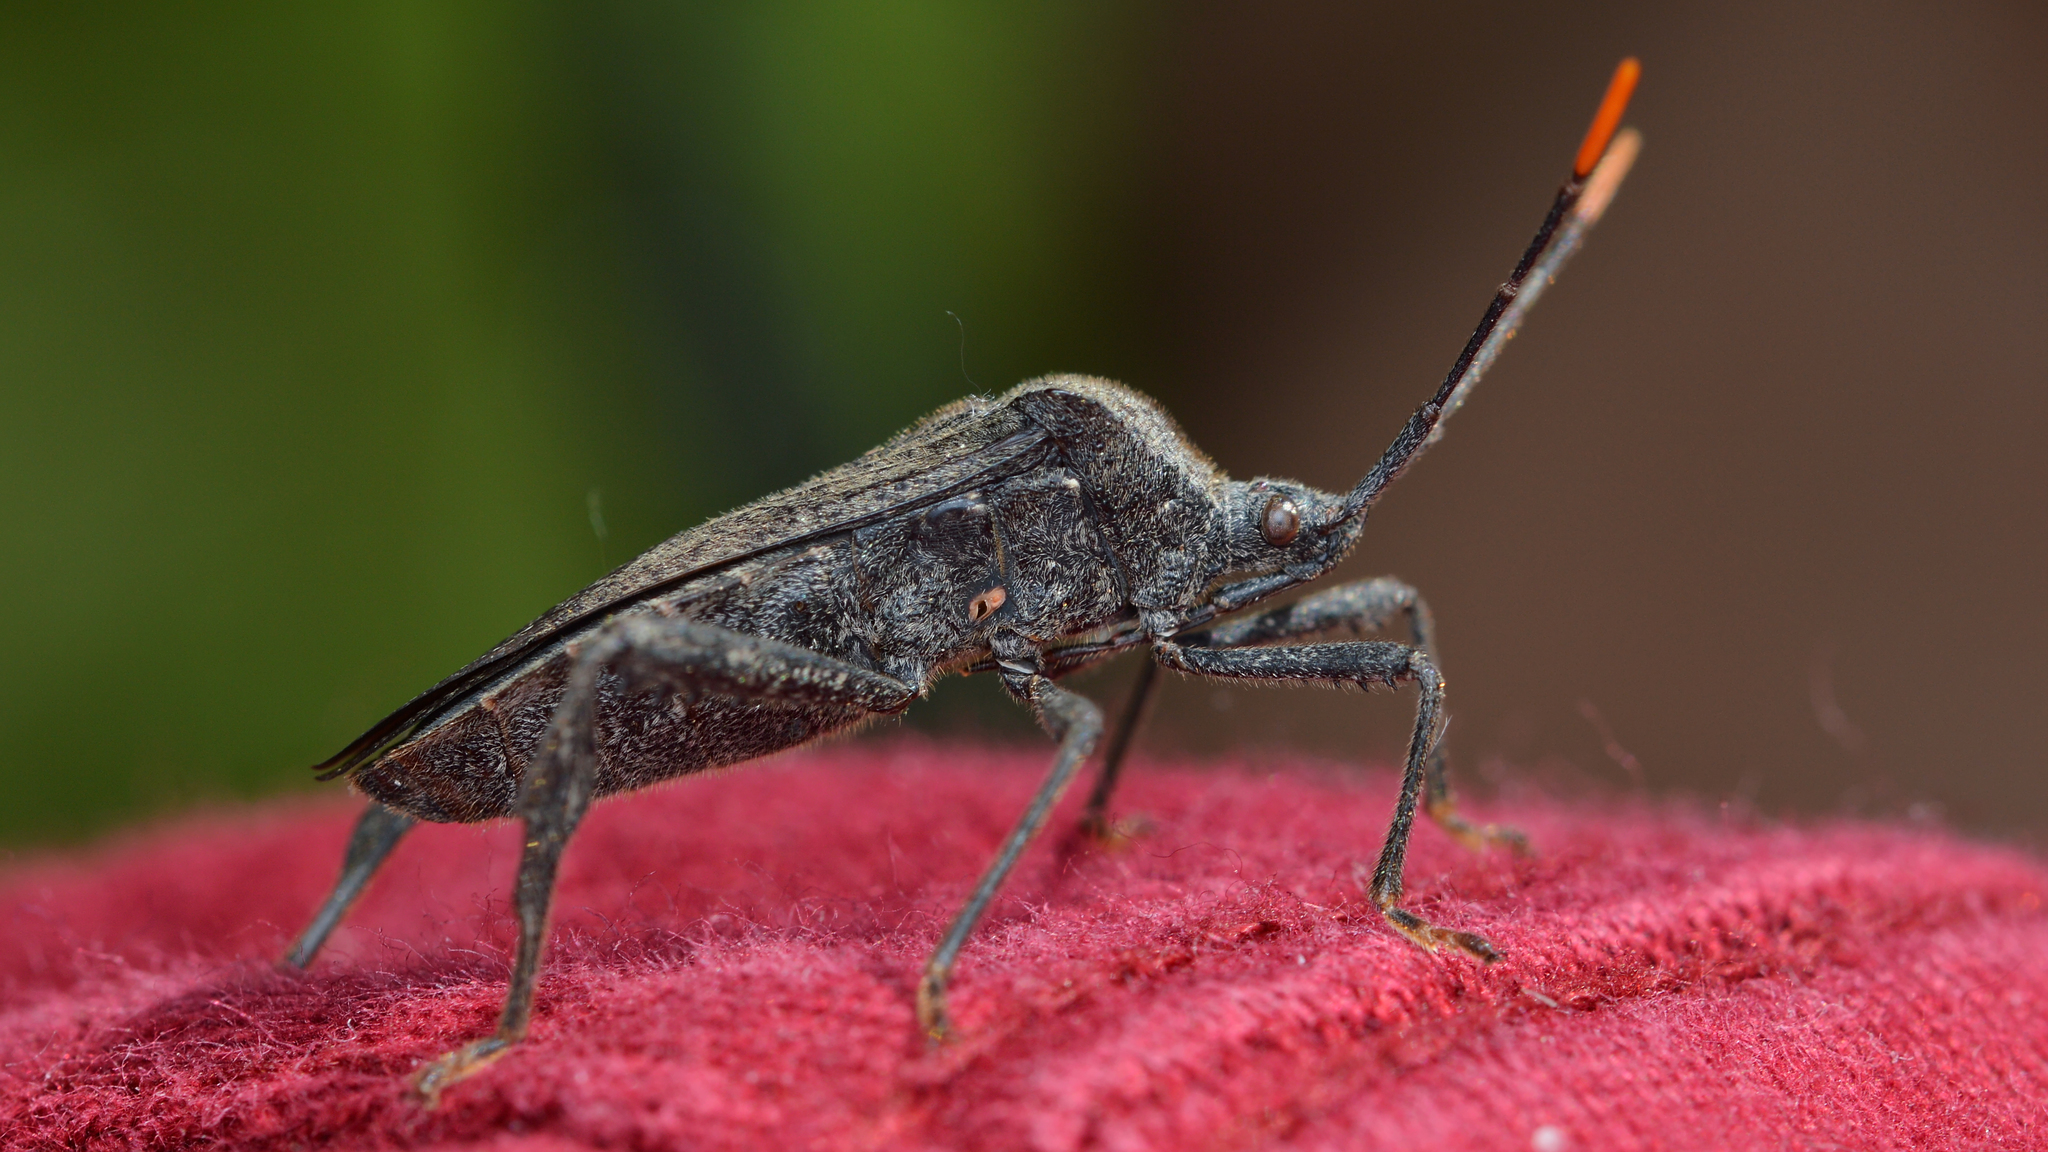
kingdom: Animalia
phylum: Arthropoda
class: Insecta
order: Hemiptera
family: Coreidae
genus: Acanthocephala
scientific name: Acanthocephala terminalis
